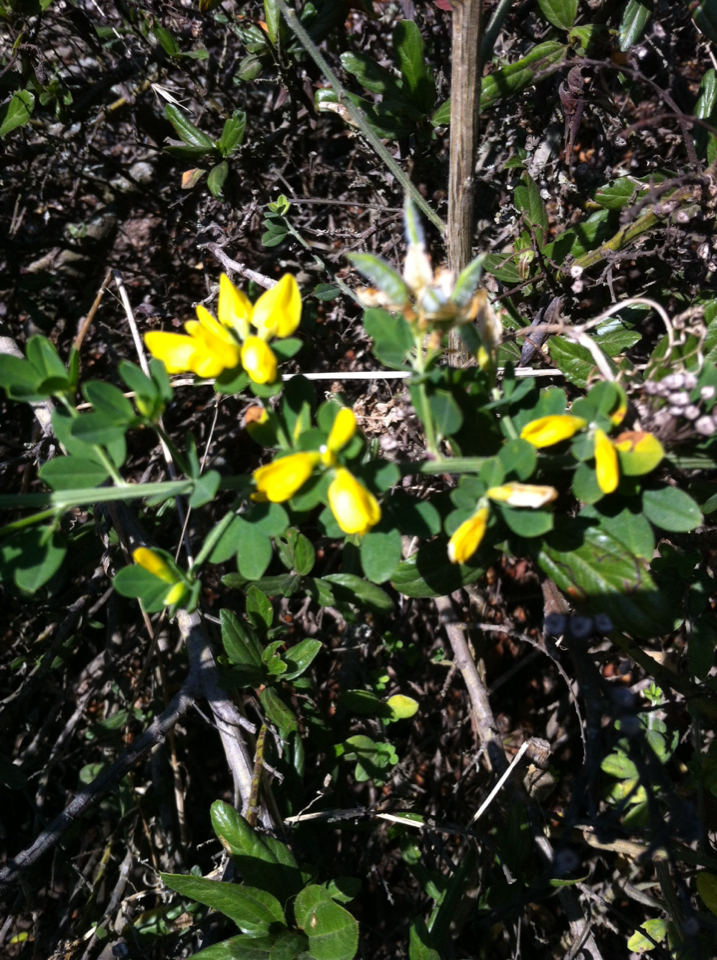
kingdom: Plantae
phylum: Tracheophyta
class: Magnoliopsida
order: Fabales
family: Fabaceae
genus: Genista
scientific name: Genista monspessulana
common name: Montpellier broom
